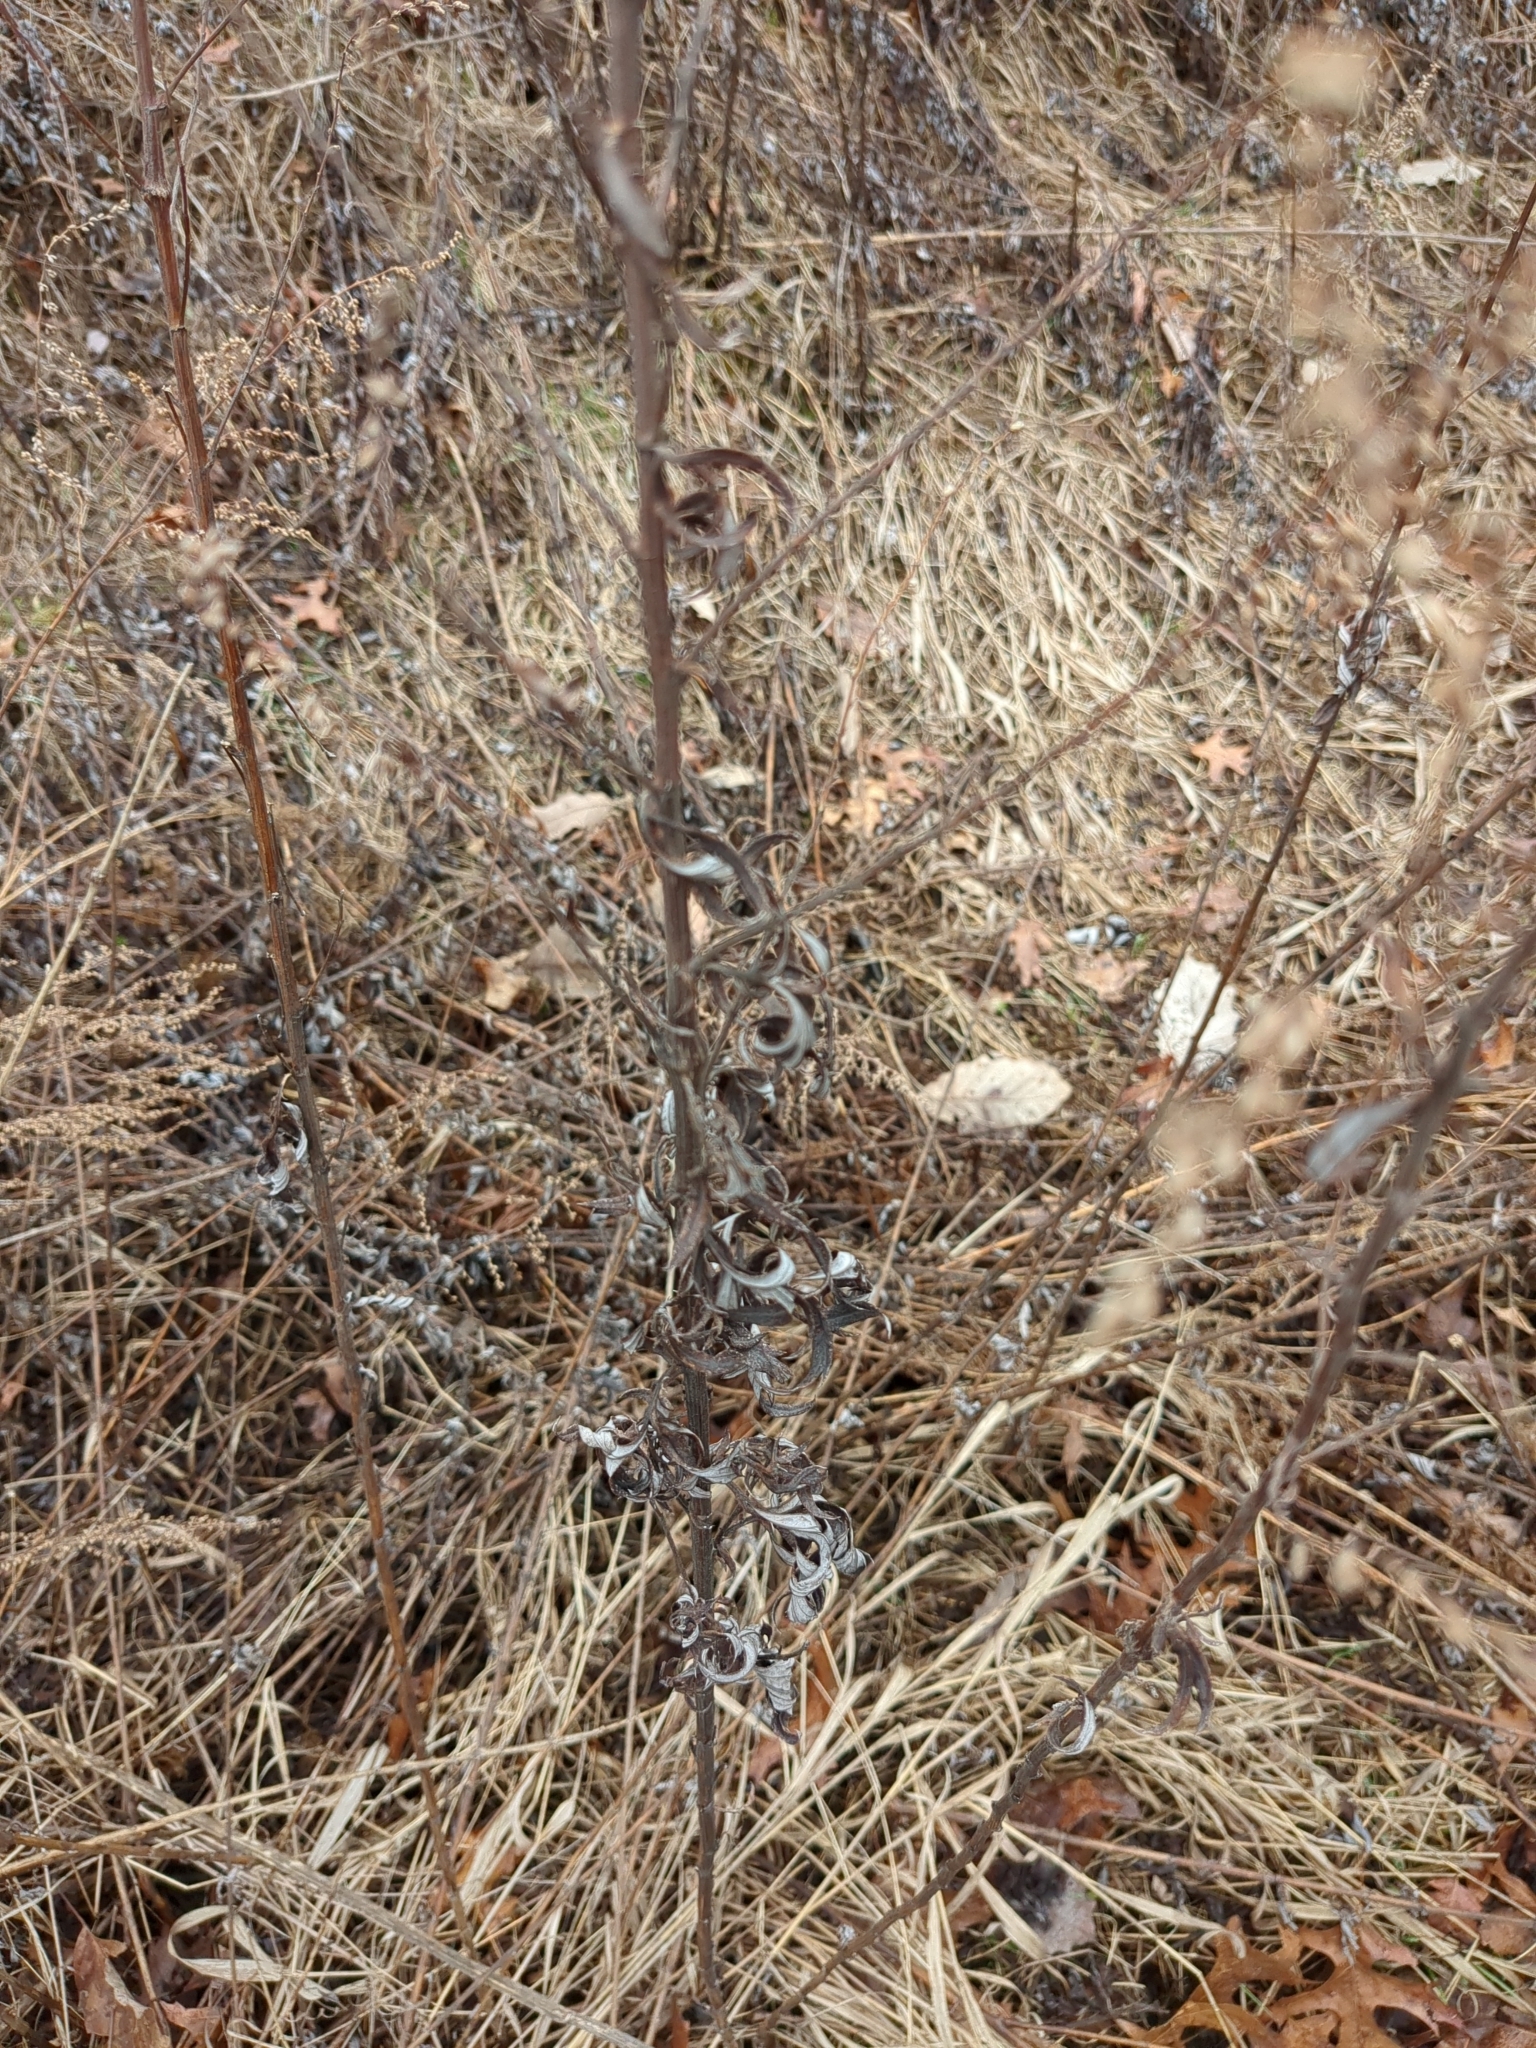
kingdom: Plantae
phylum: Tracheophyta
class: Magnoliopsida
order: Asterales
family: Asteraceae
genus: Artemisia
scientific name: Artemisia vulgaris
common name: Mugwort
